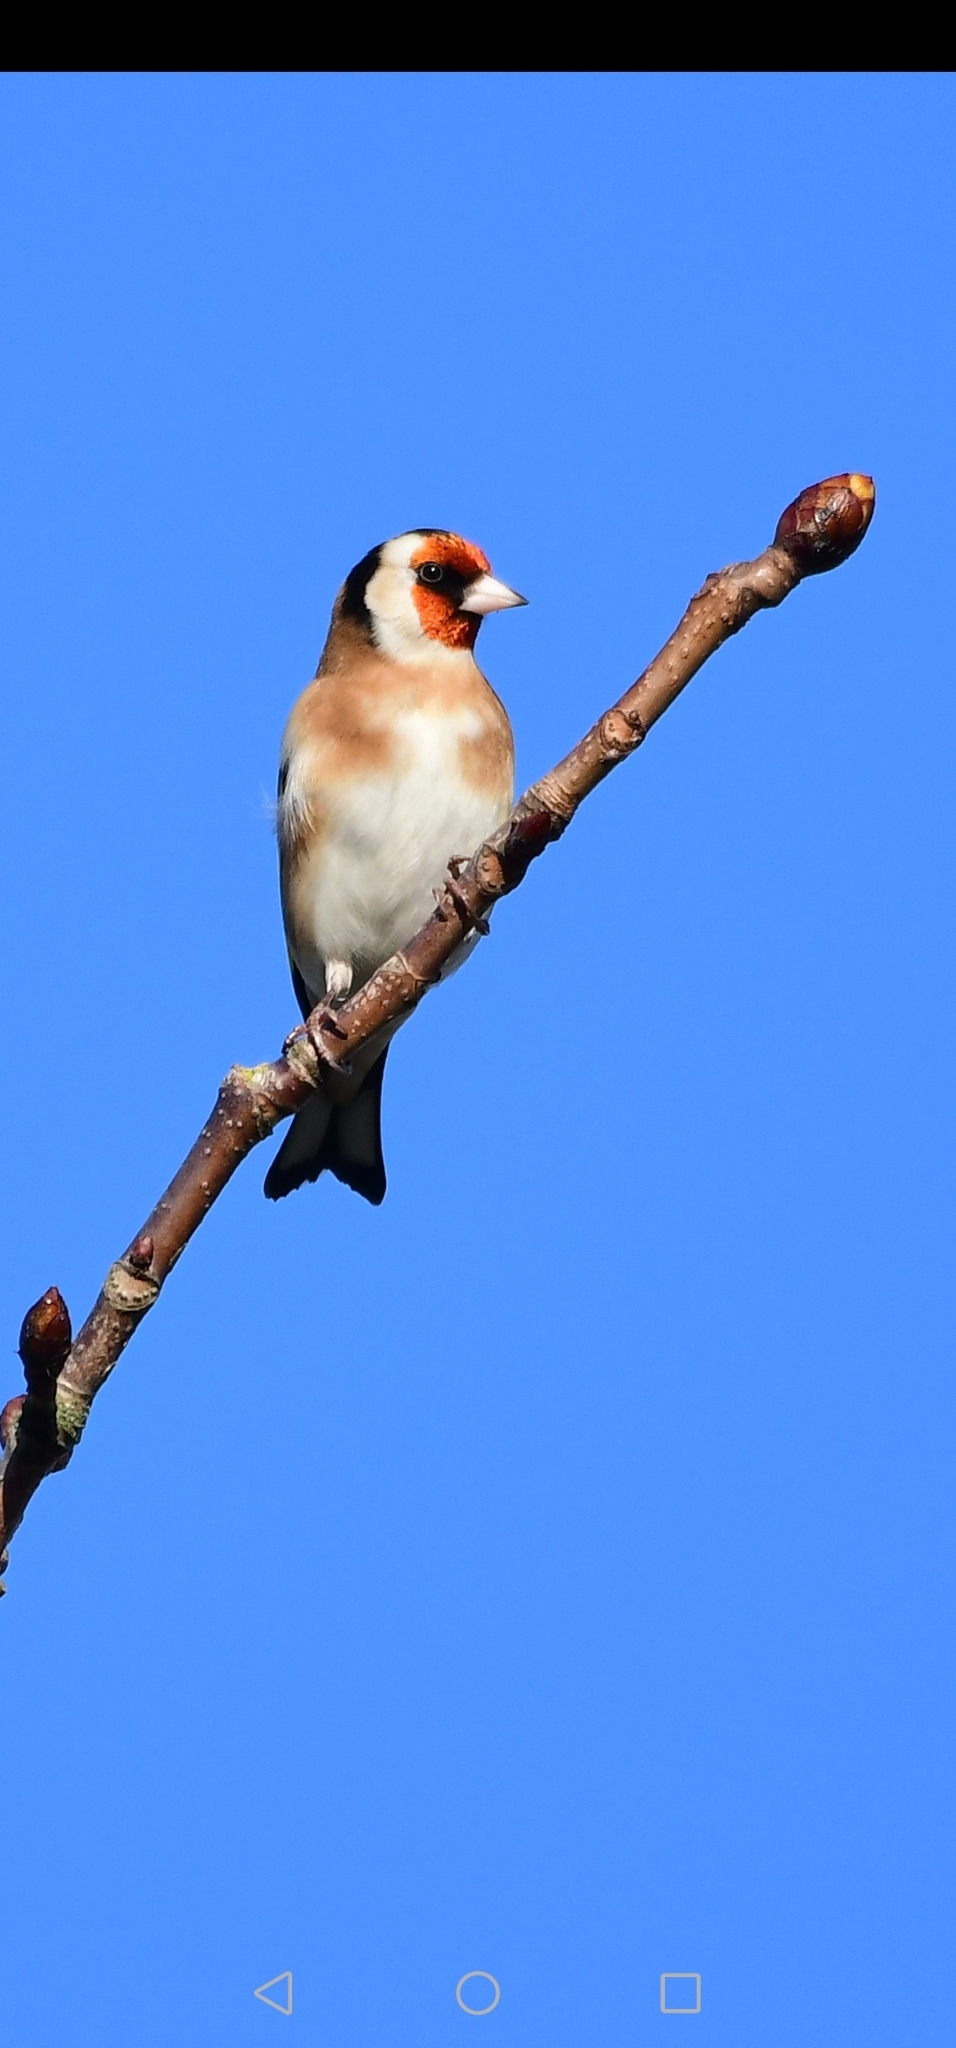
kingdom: Animalia
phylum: Chordata
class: Aves
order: Passeriformes
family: Fringillidae
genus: Carduelis
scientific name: Carduelis carduelis
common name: European goldfinch
